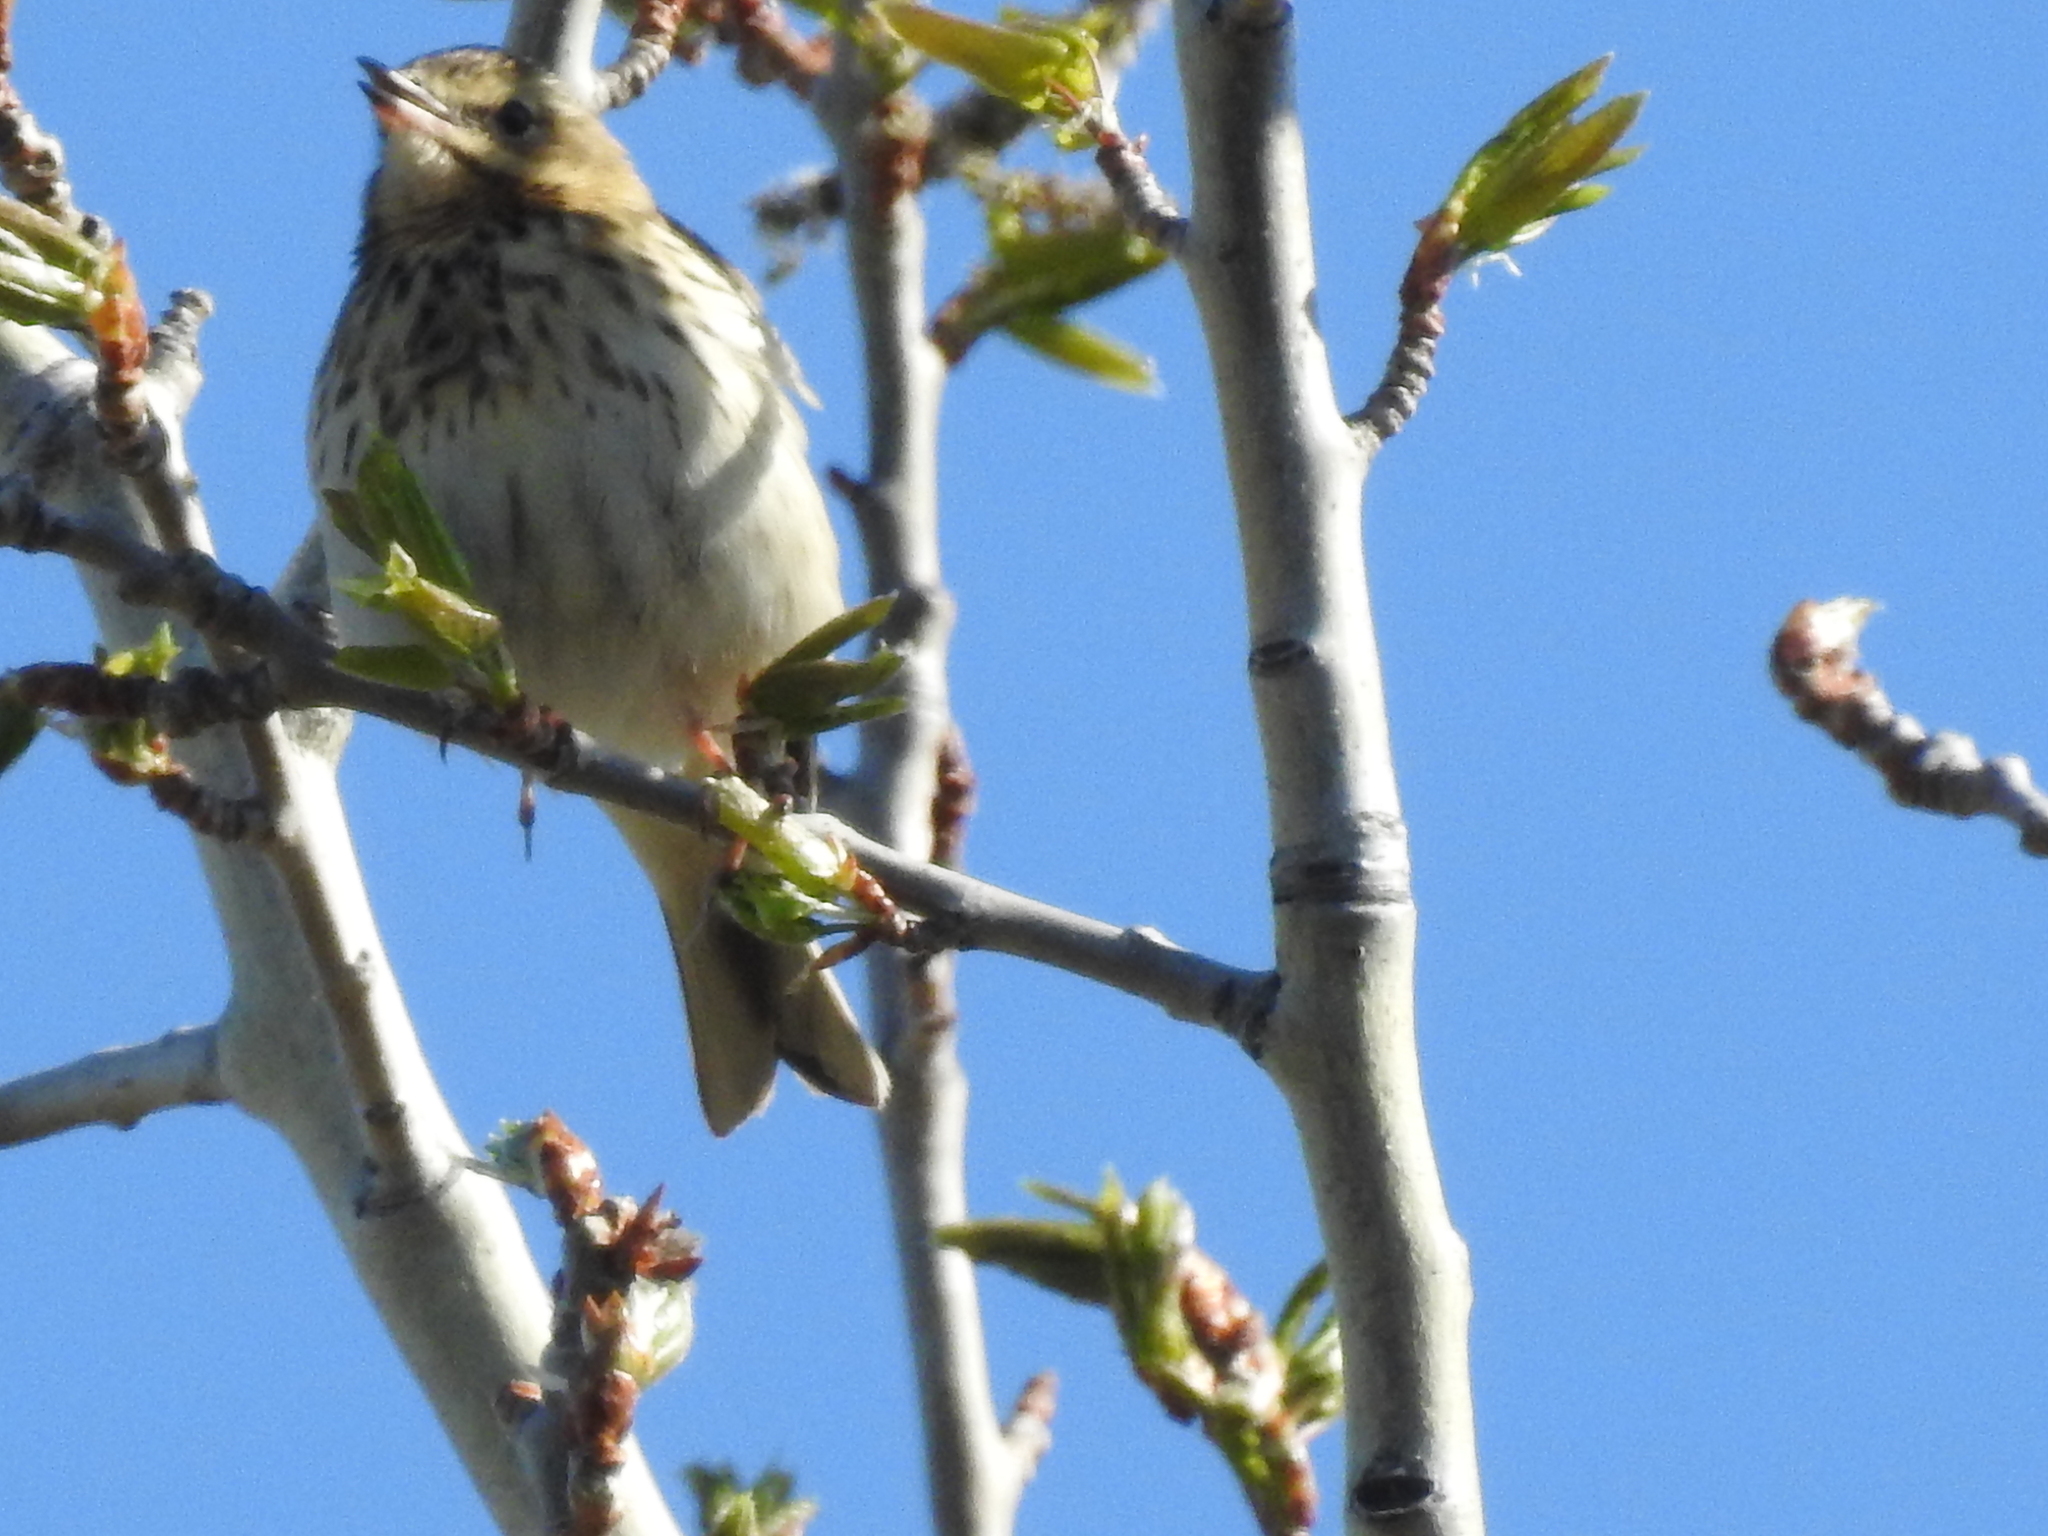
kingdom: Animalia
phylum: Chordata
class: Aves
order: Passeriformes
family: Motacillidae
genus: Anthus
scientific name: Anthus trivialis
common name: Tree pipit
